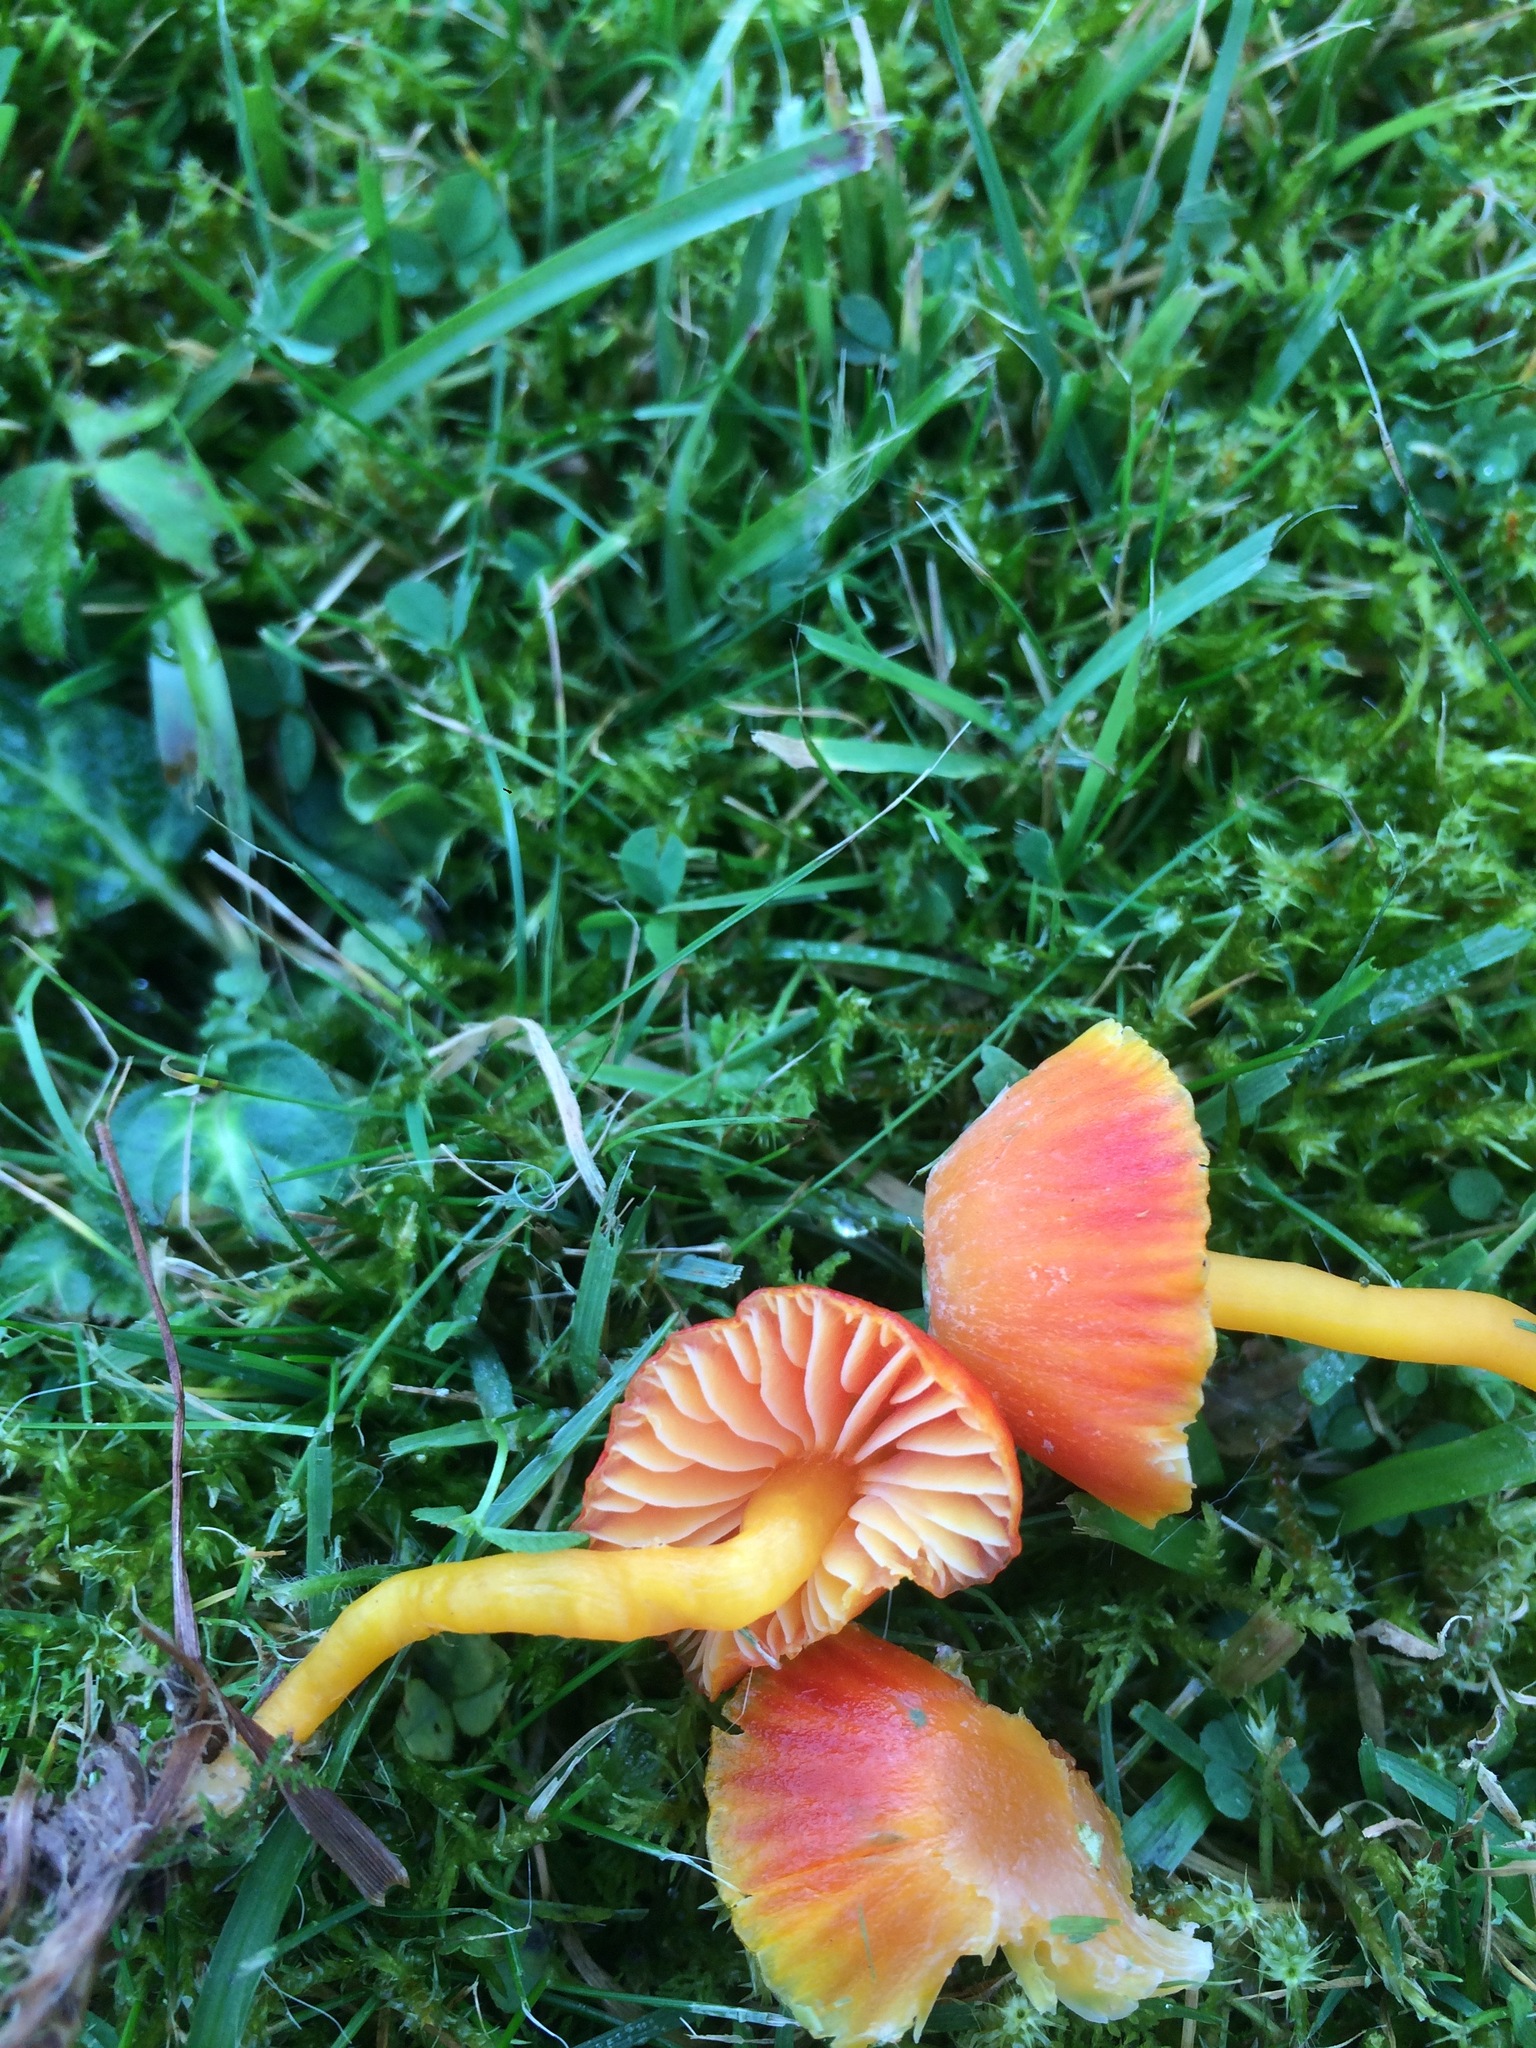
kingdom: Fungi
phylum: Basidiomycota
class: Agaricomycetes
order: Agaricales
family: Hygrophoraceae
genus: Hygrocybe
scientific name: Hygrocybe insipida
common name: Spangle waxcap
